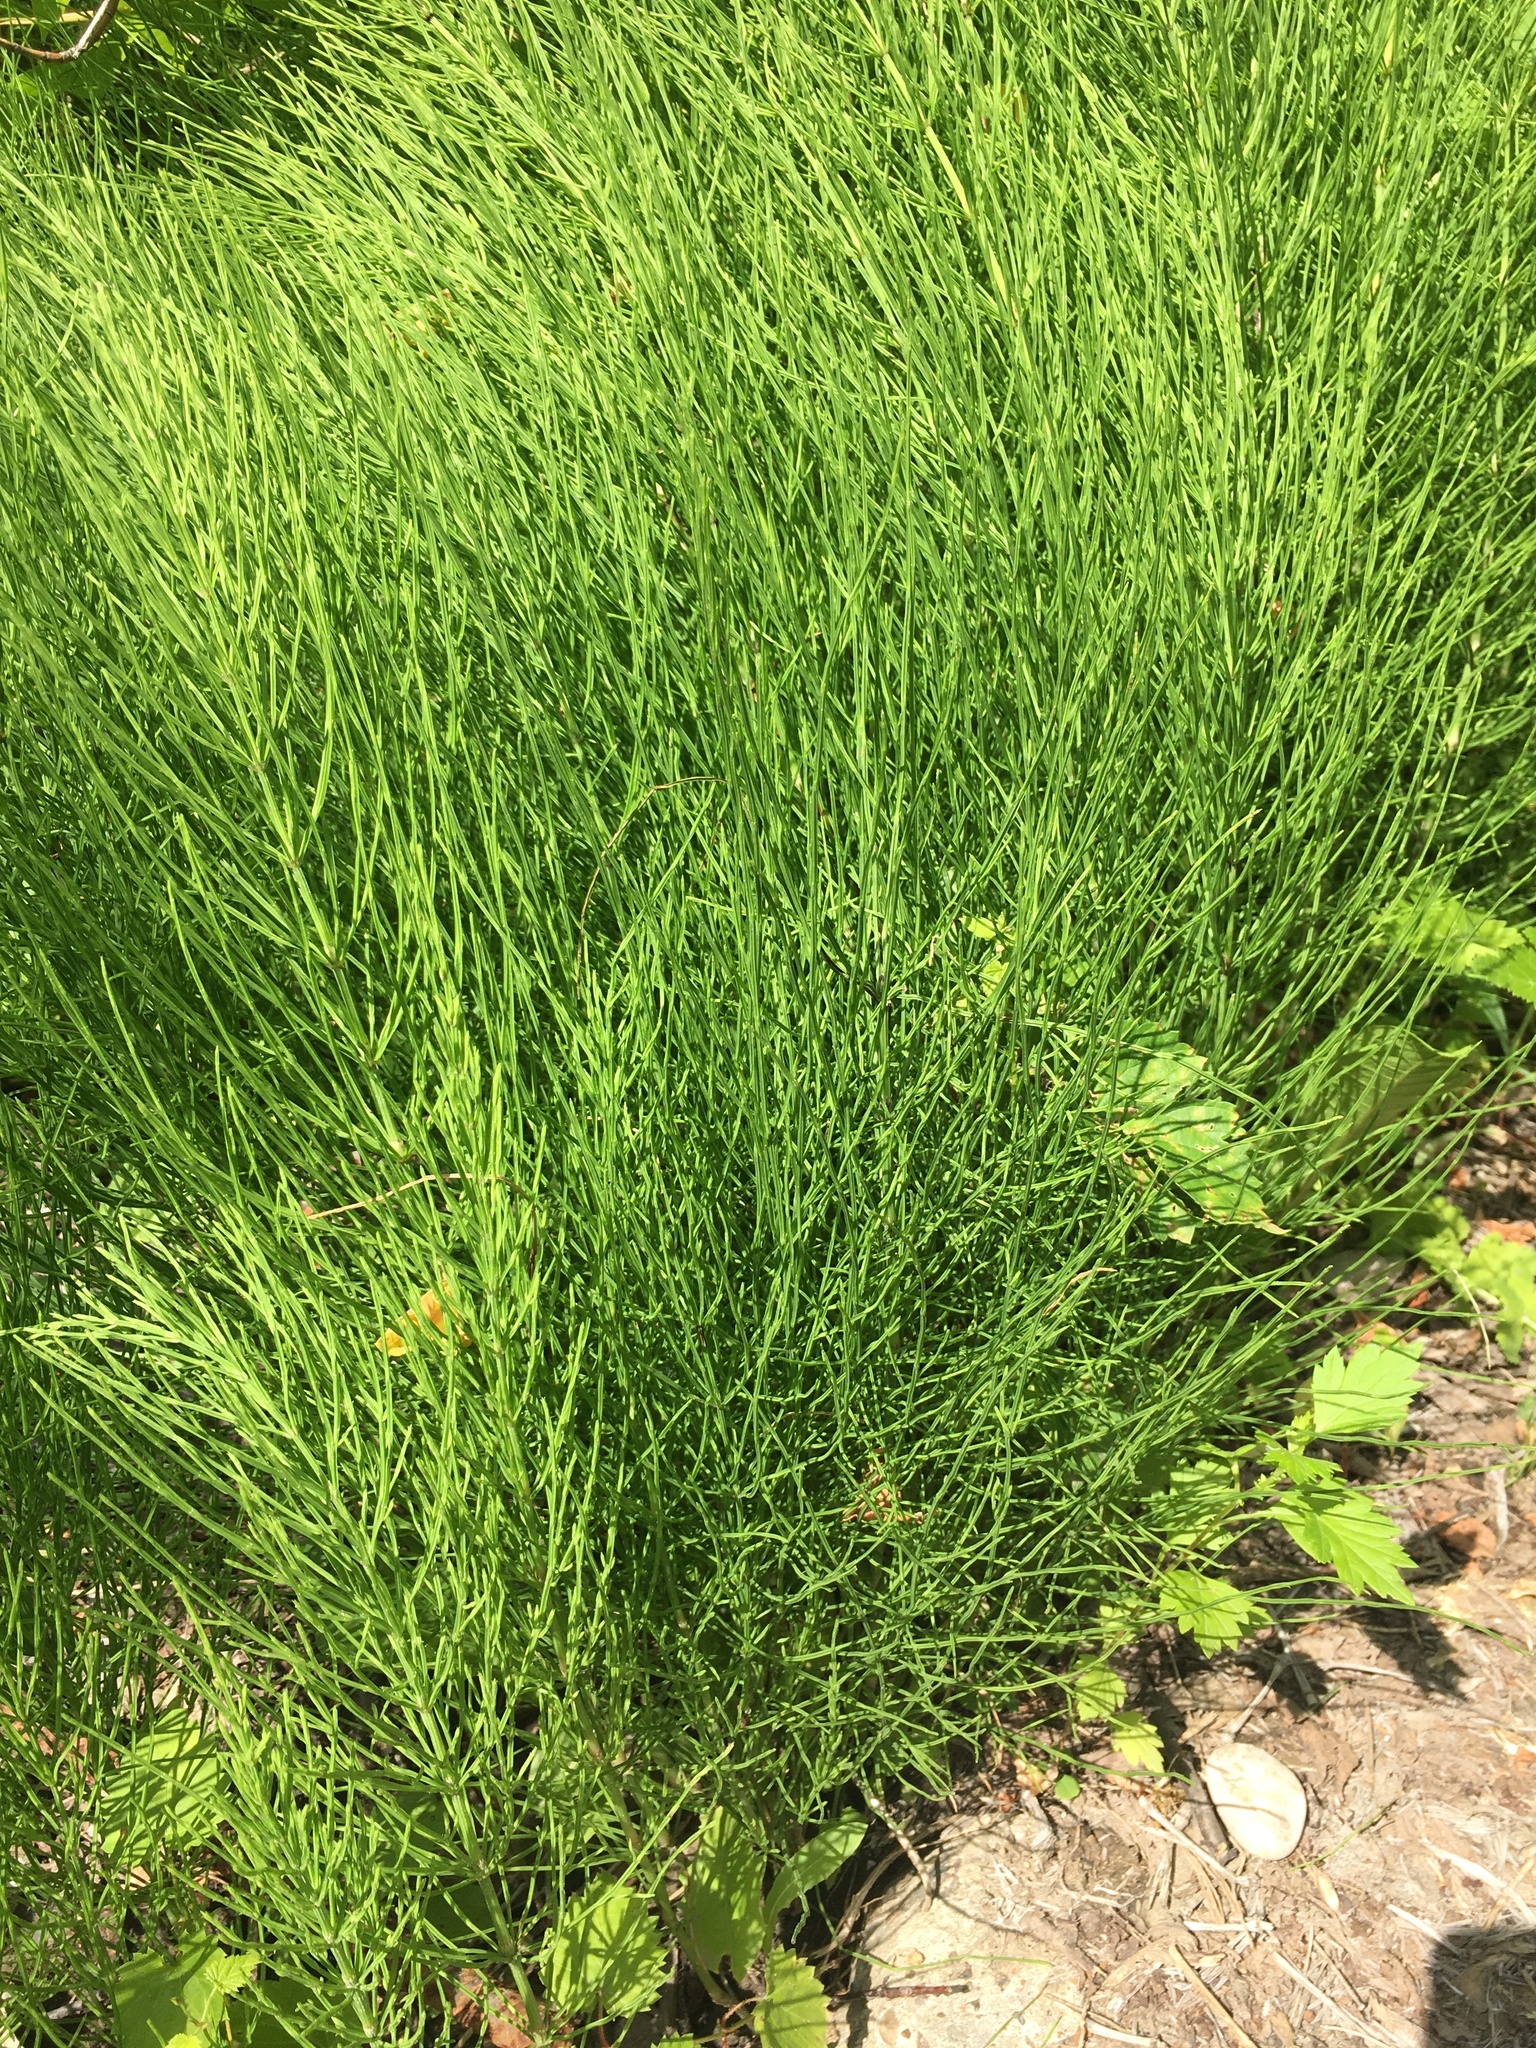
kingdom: Plantae
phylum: Tracheophyta
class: Polypodiopsida
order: Equisetales
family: Equisetaceae
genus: Equisetum
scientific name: Equisetum arvense
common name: Field horsetail
